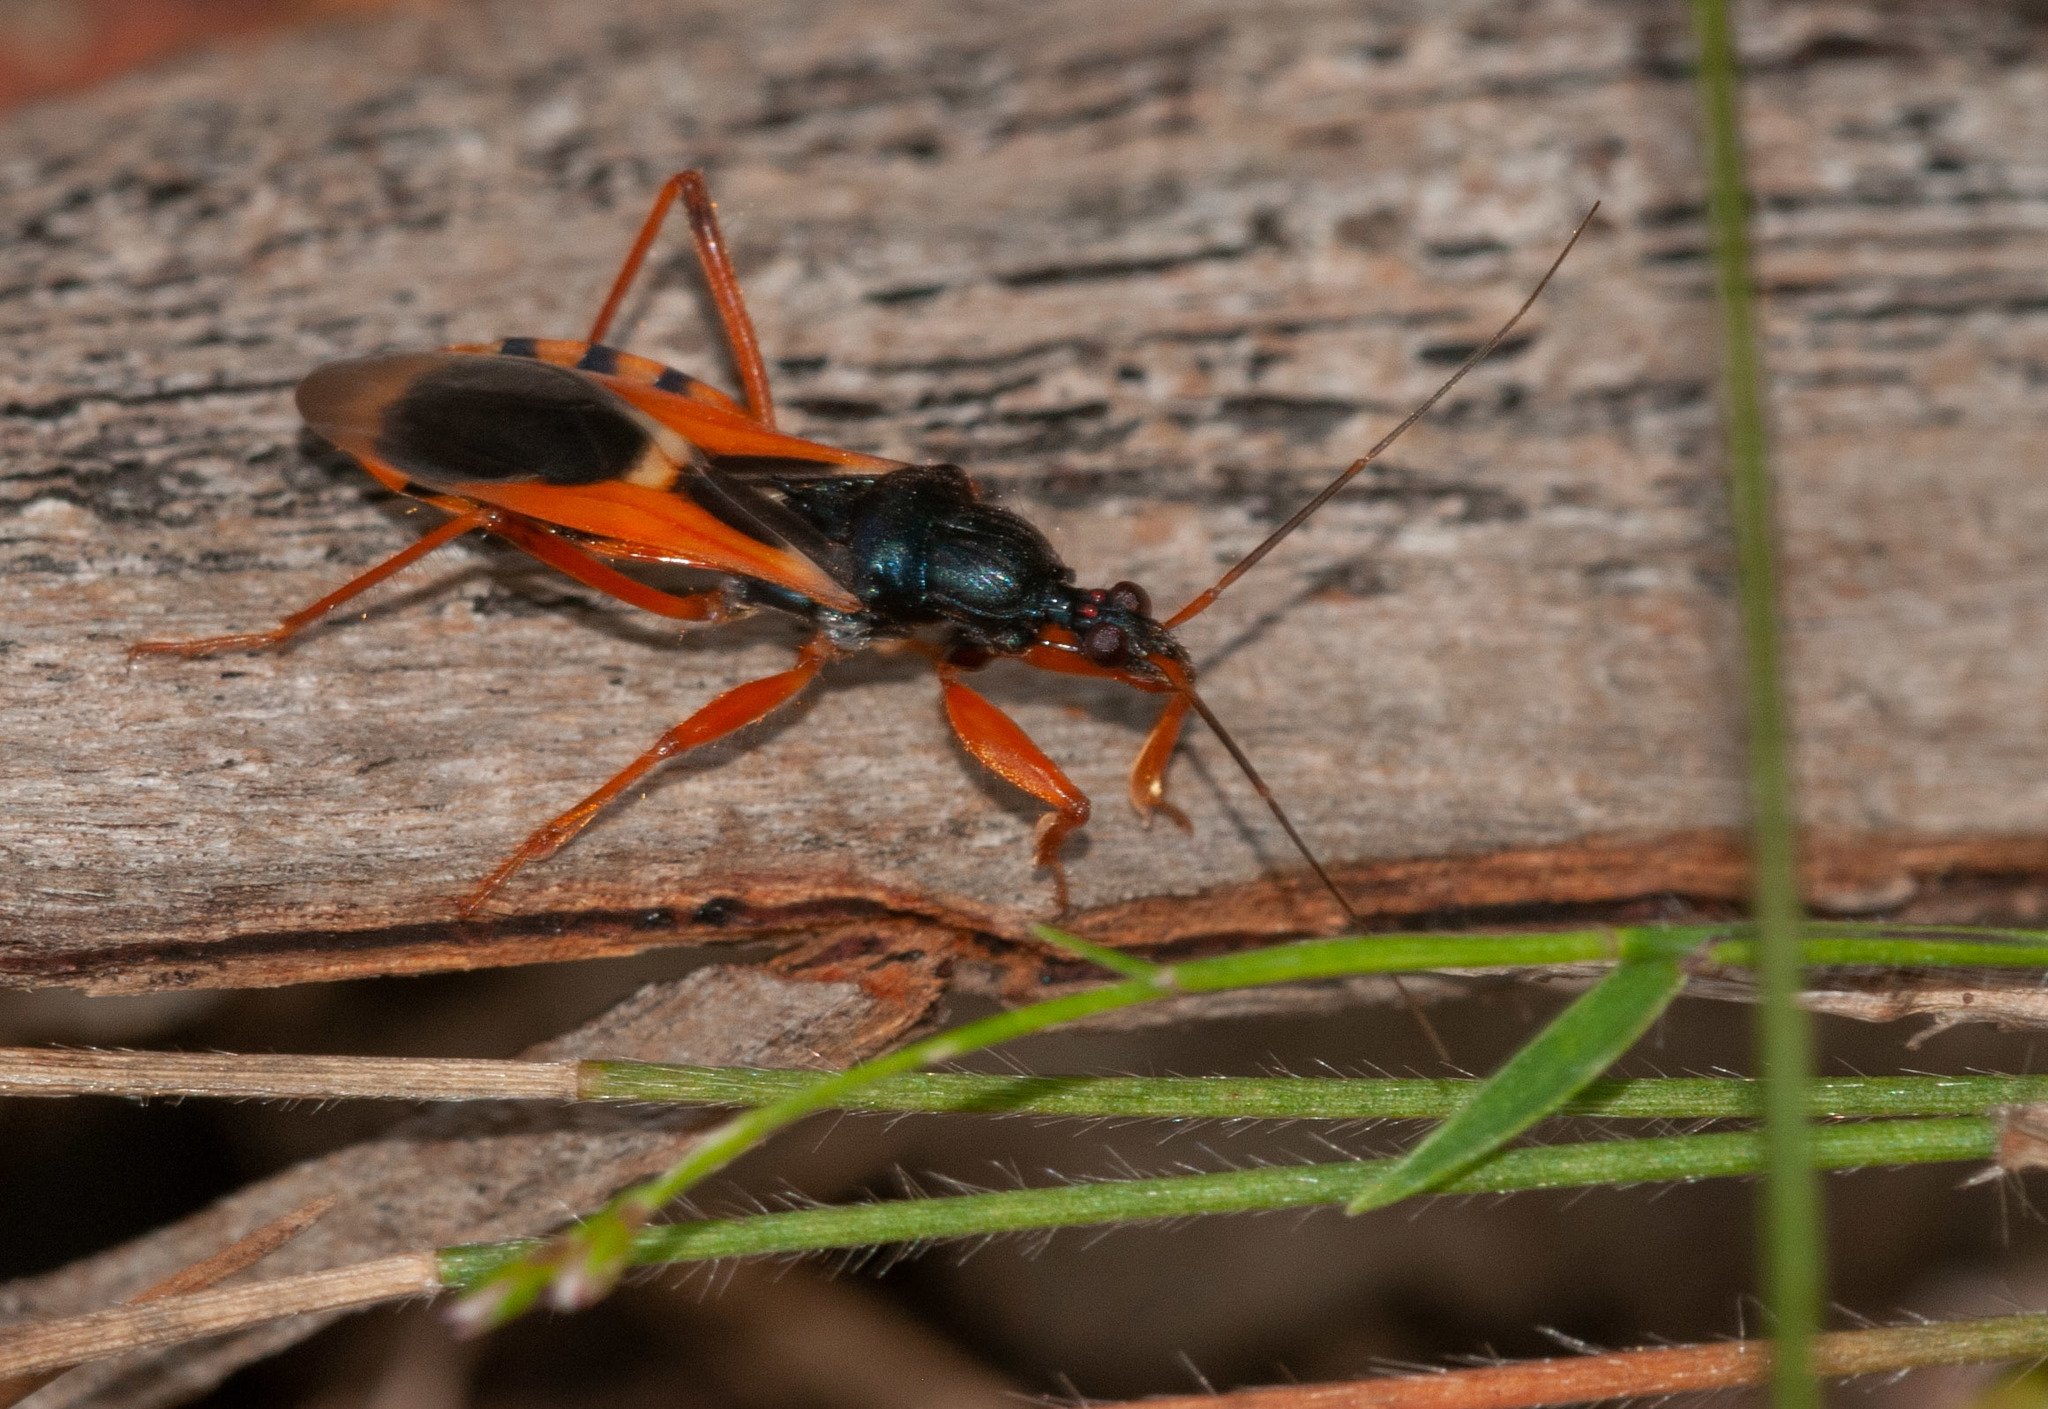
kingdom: Animalia
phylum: Arthropoda
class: Insecta
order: Hemiptera
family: Reduviidae
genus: Ectomocoris
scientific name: Ectomocoris ornatus
